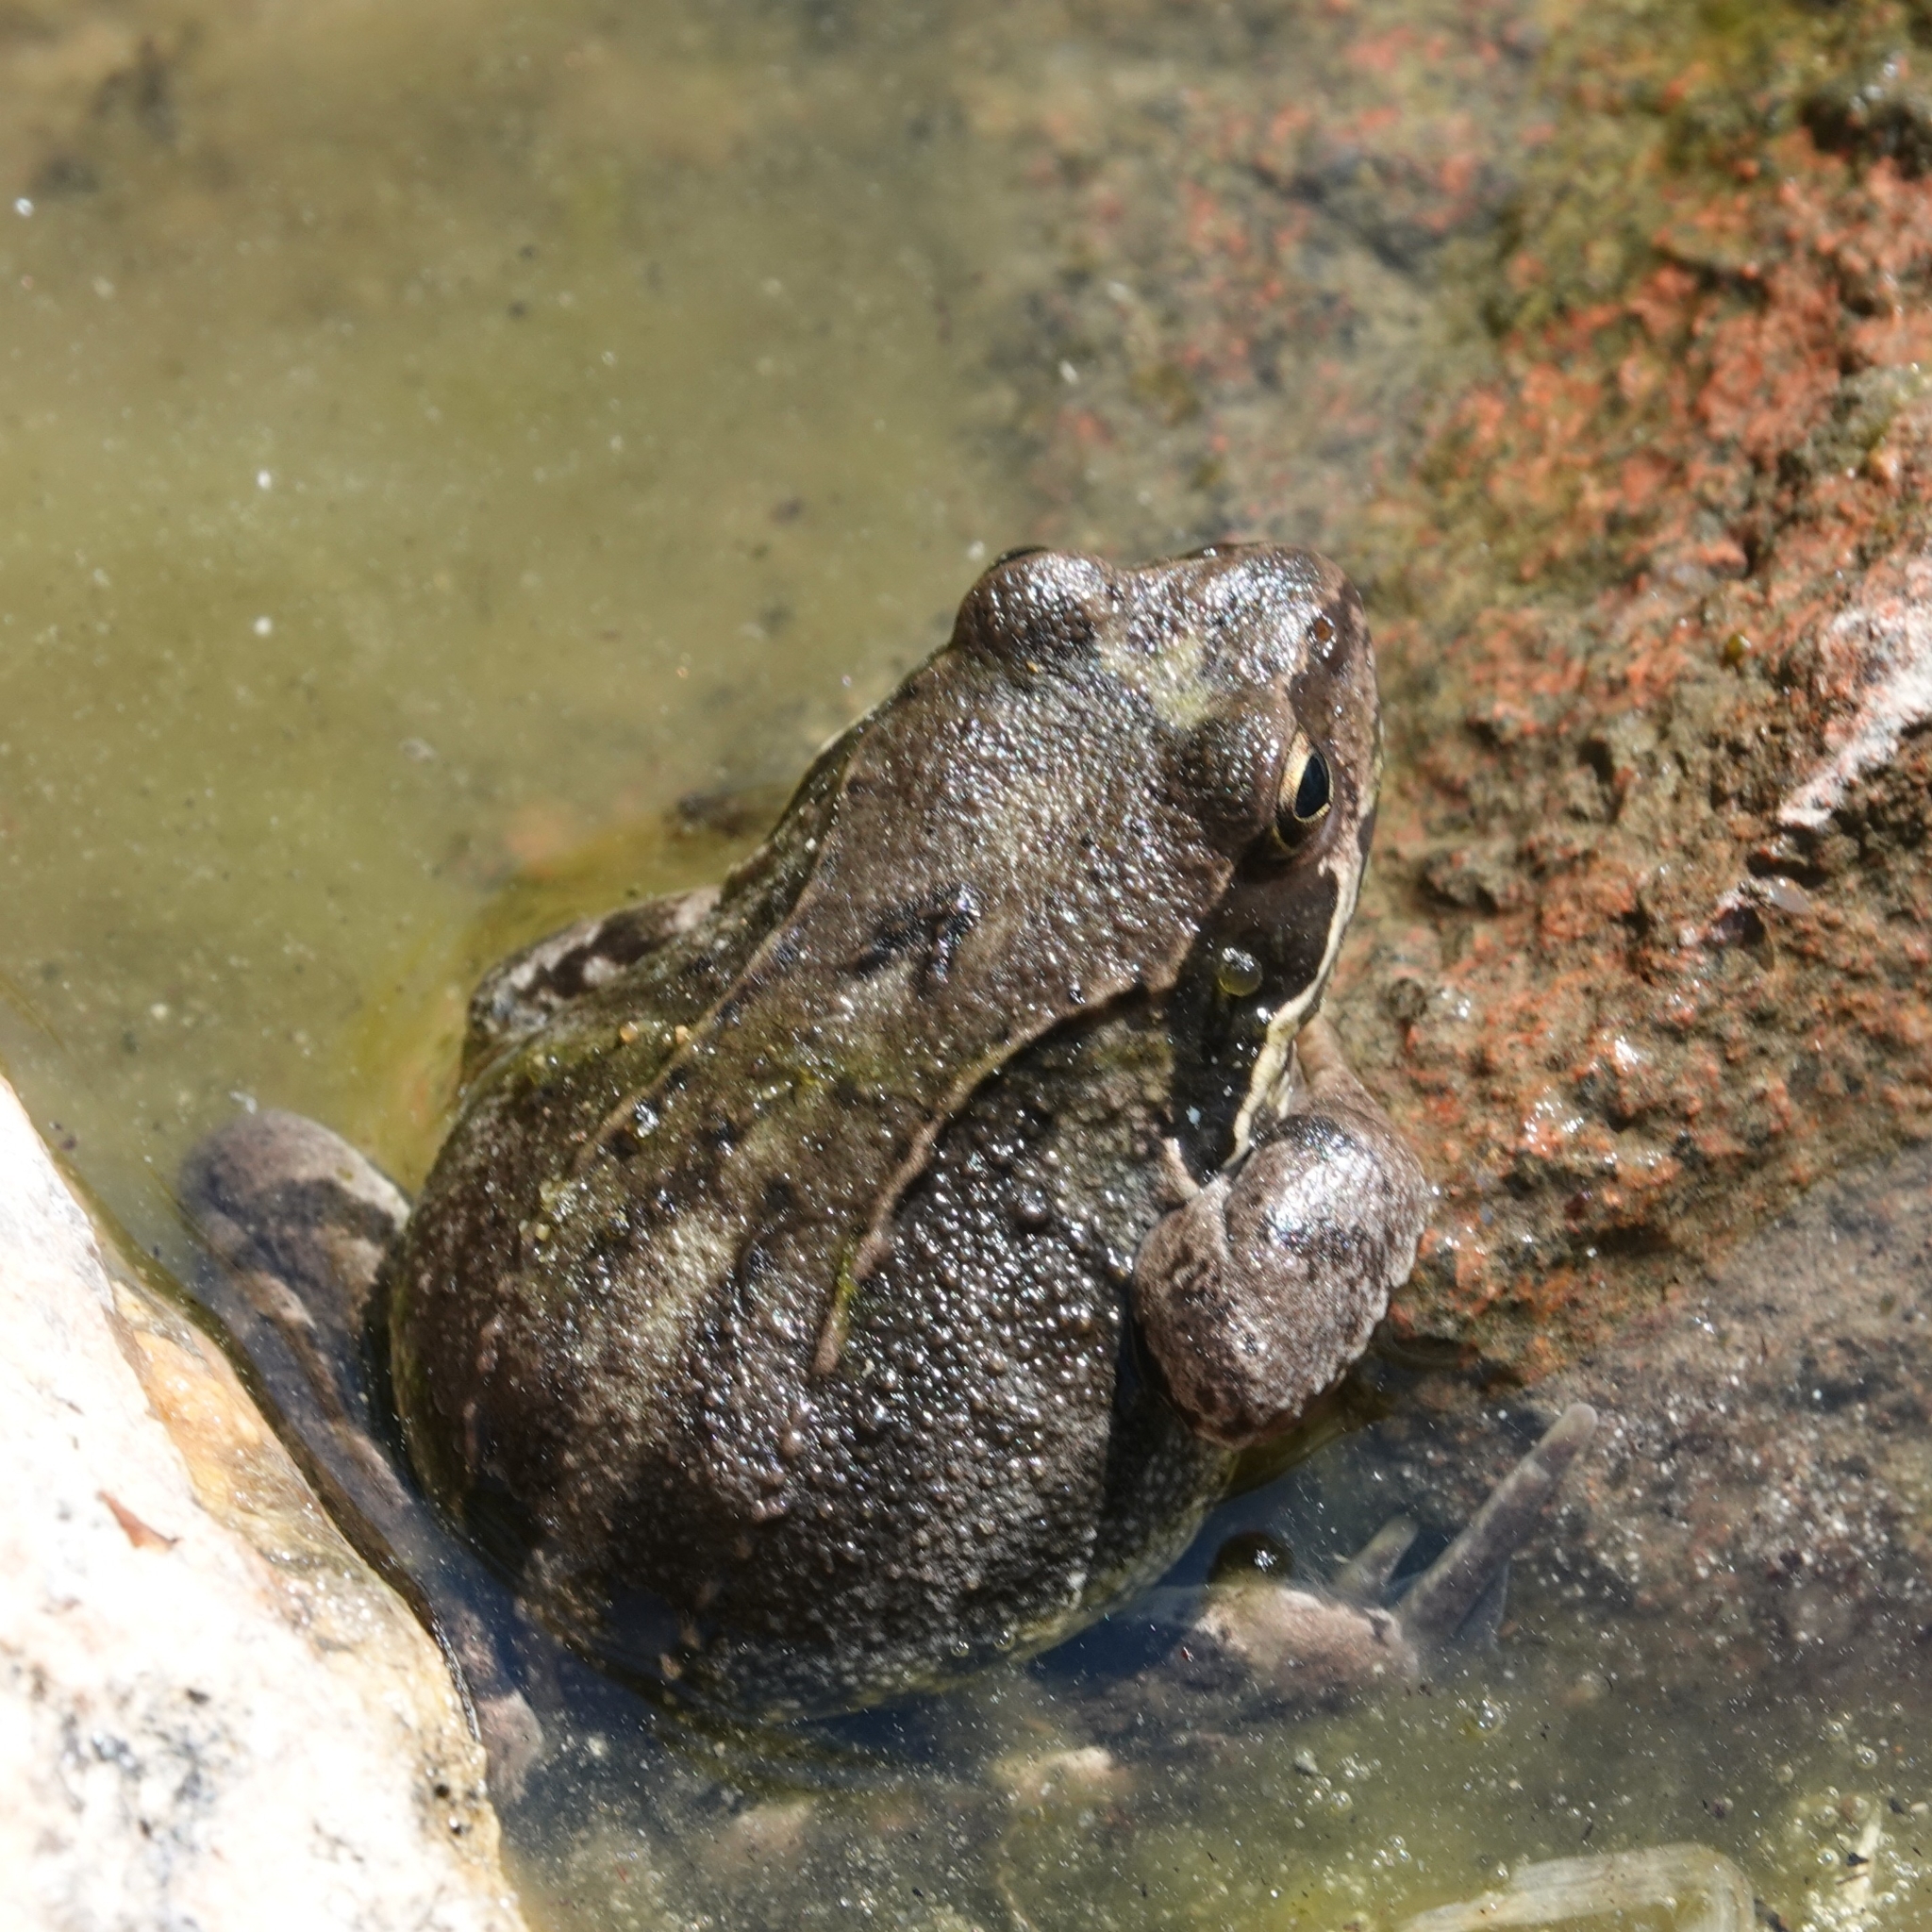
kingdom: Animalia
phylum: Chordata
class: Amphibia
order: Anura
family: Ranidae
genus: Rana
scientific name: Rana temporaria
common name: Common frog
